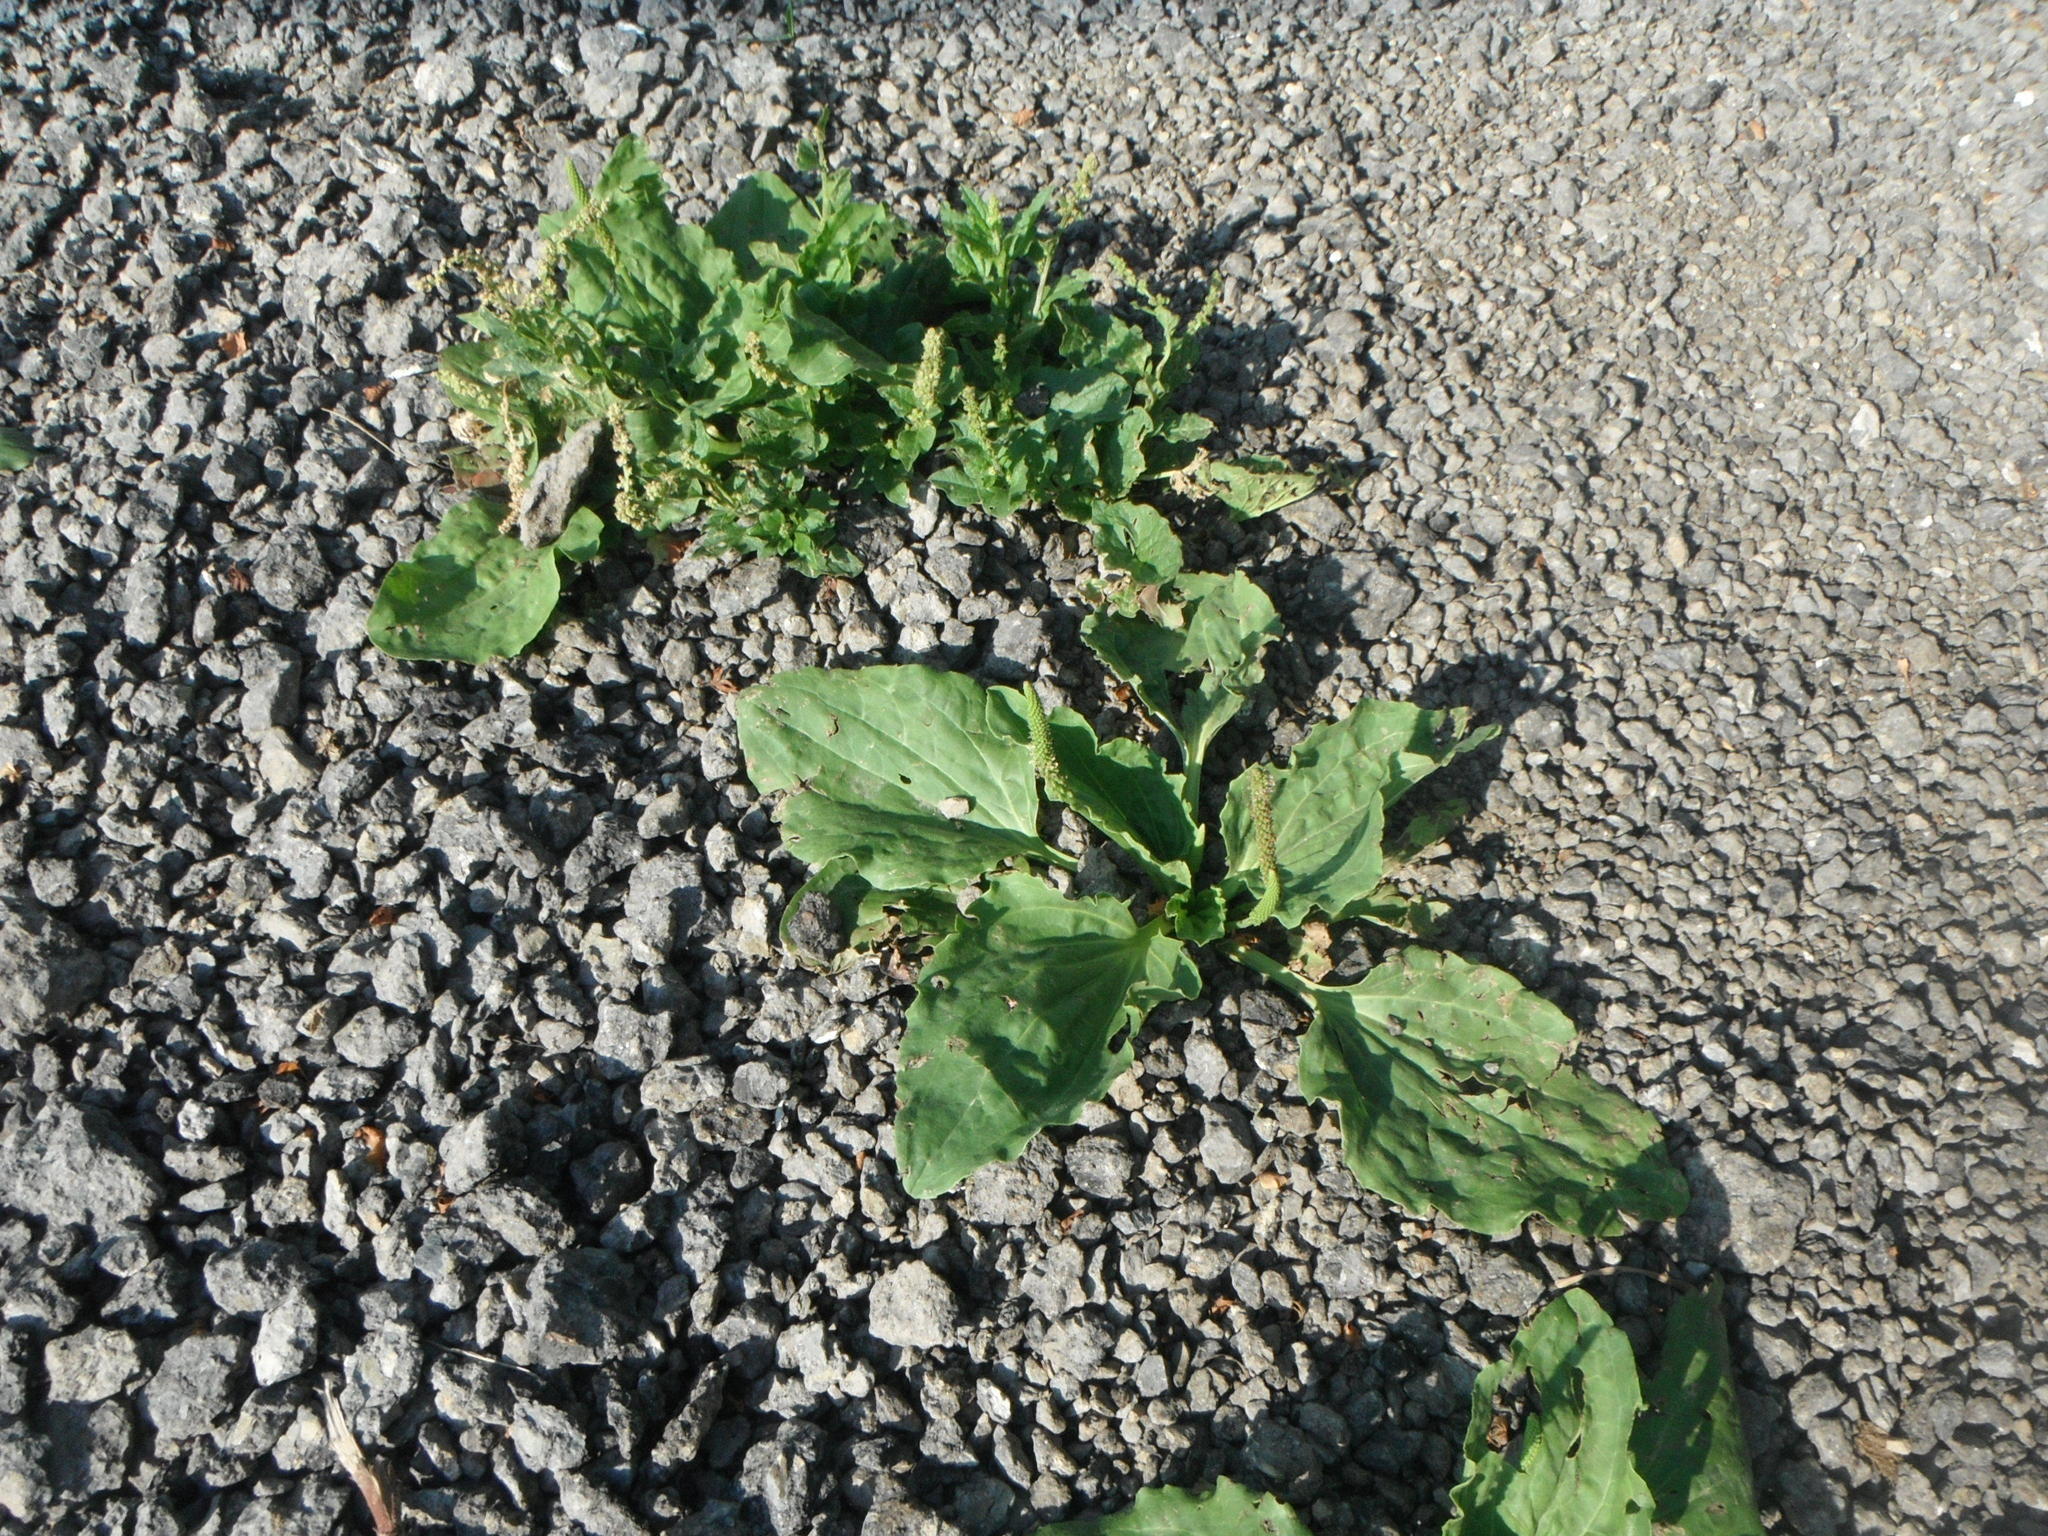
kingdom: Plantae
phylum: Tracheophyta
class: Magnoliopsida
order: Lamiales
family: Plantaginaceae
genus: Plantago
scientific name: Plantago major
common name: Common plantain
